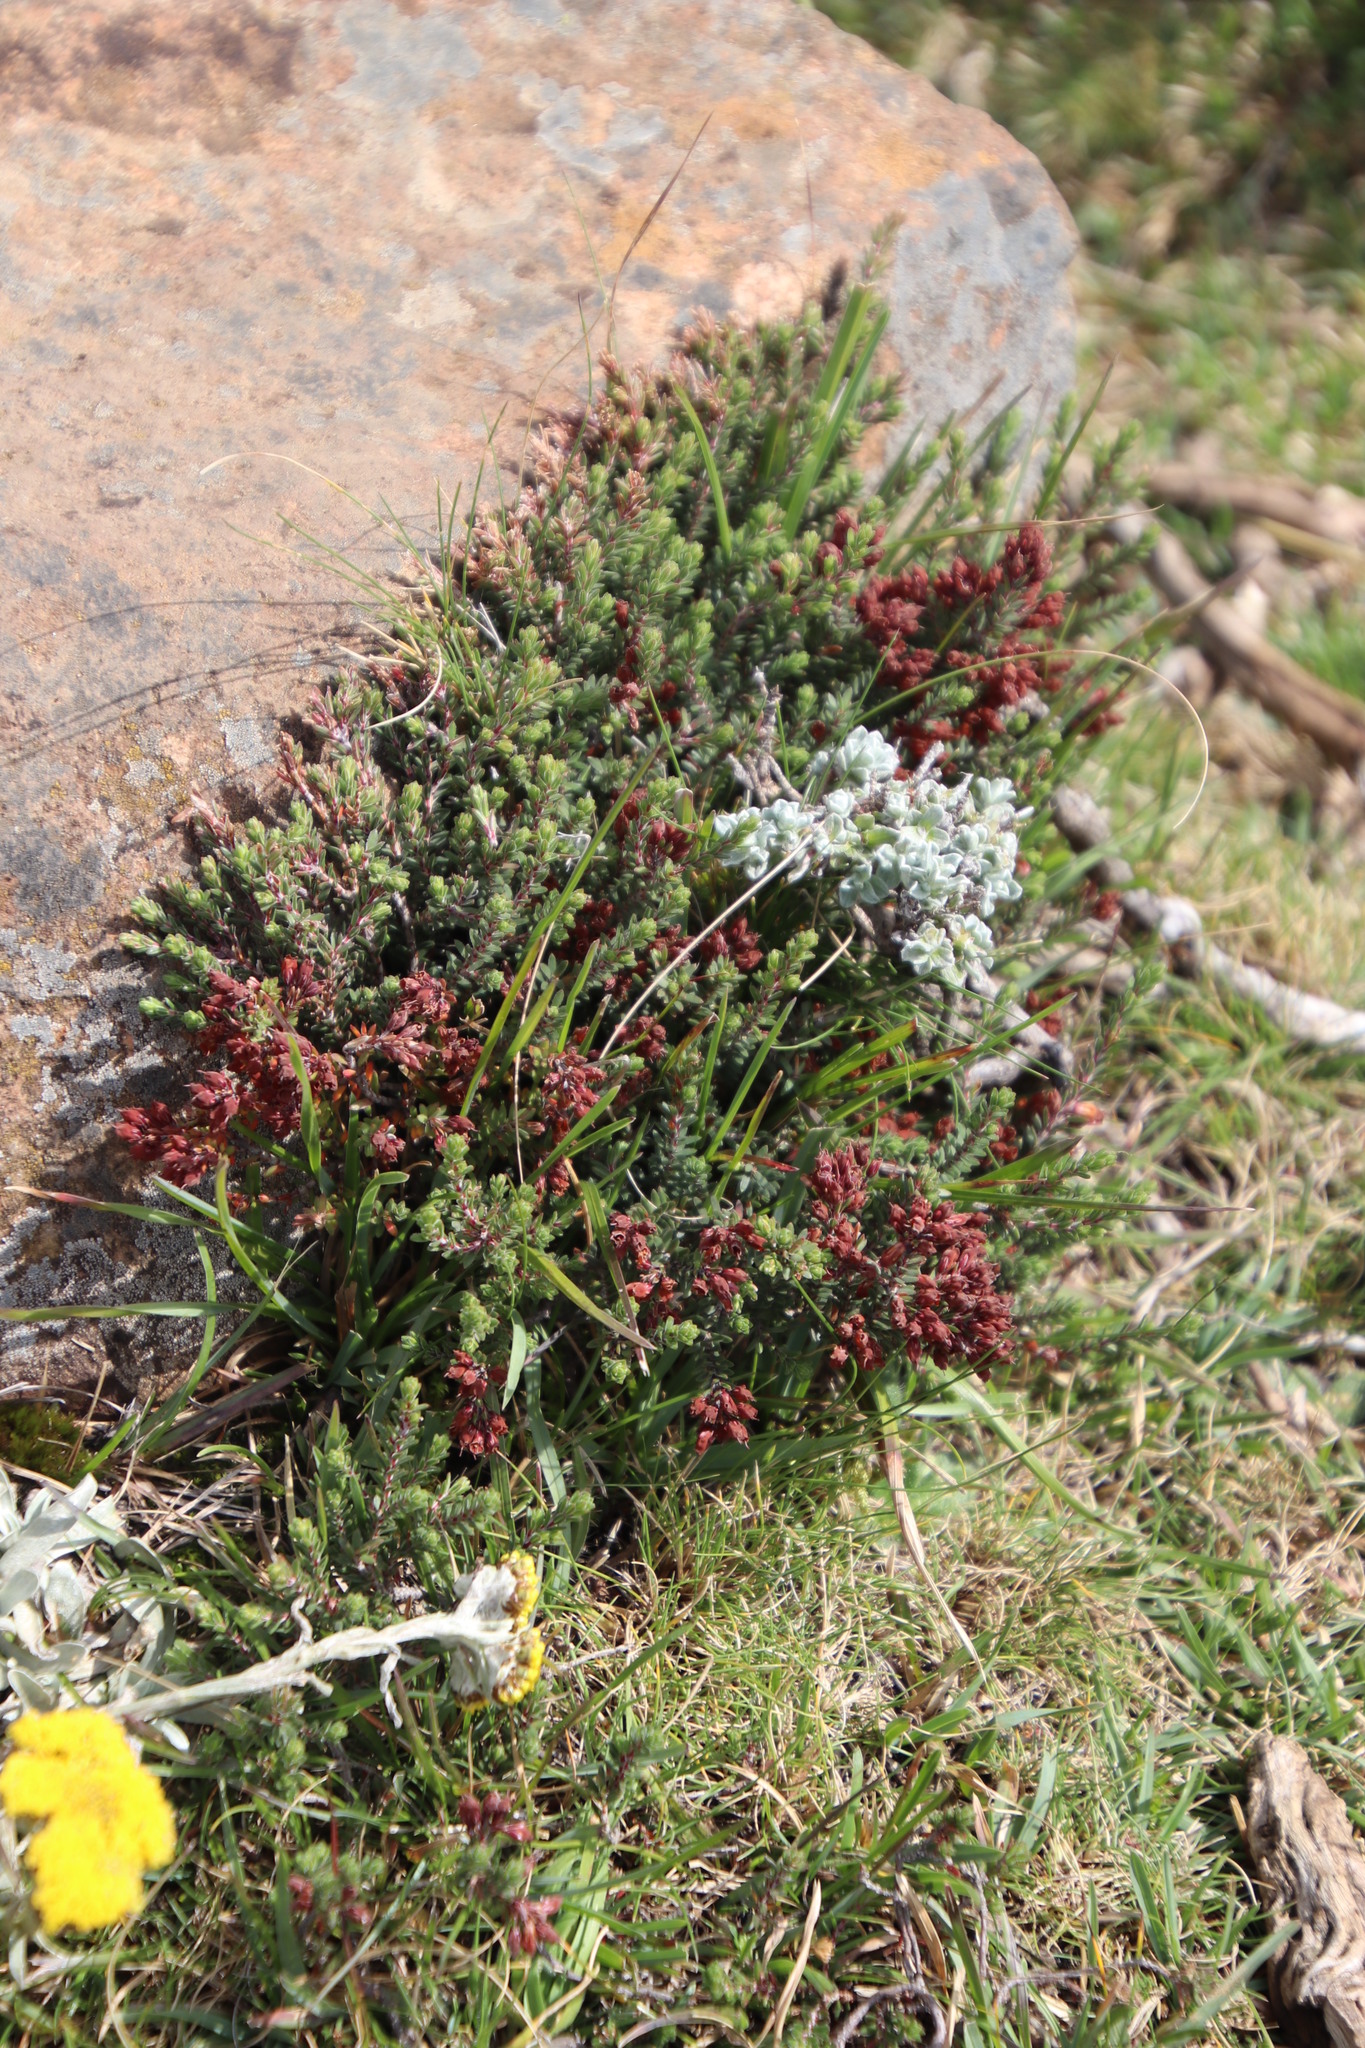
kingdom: Plantae
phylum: Tracheophyta
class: Magnoliopsida
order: Ericales
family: Ericaceae
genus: Erica
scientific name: Erica thodei
